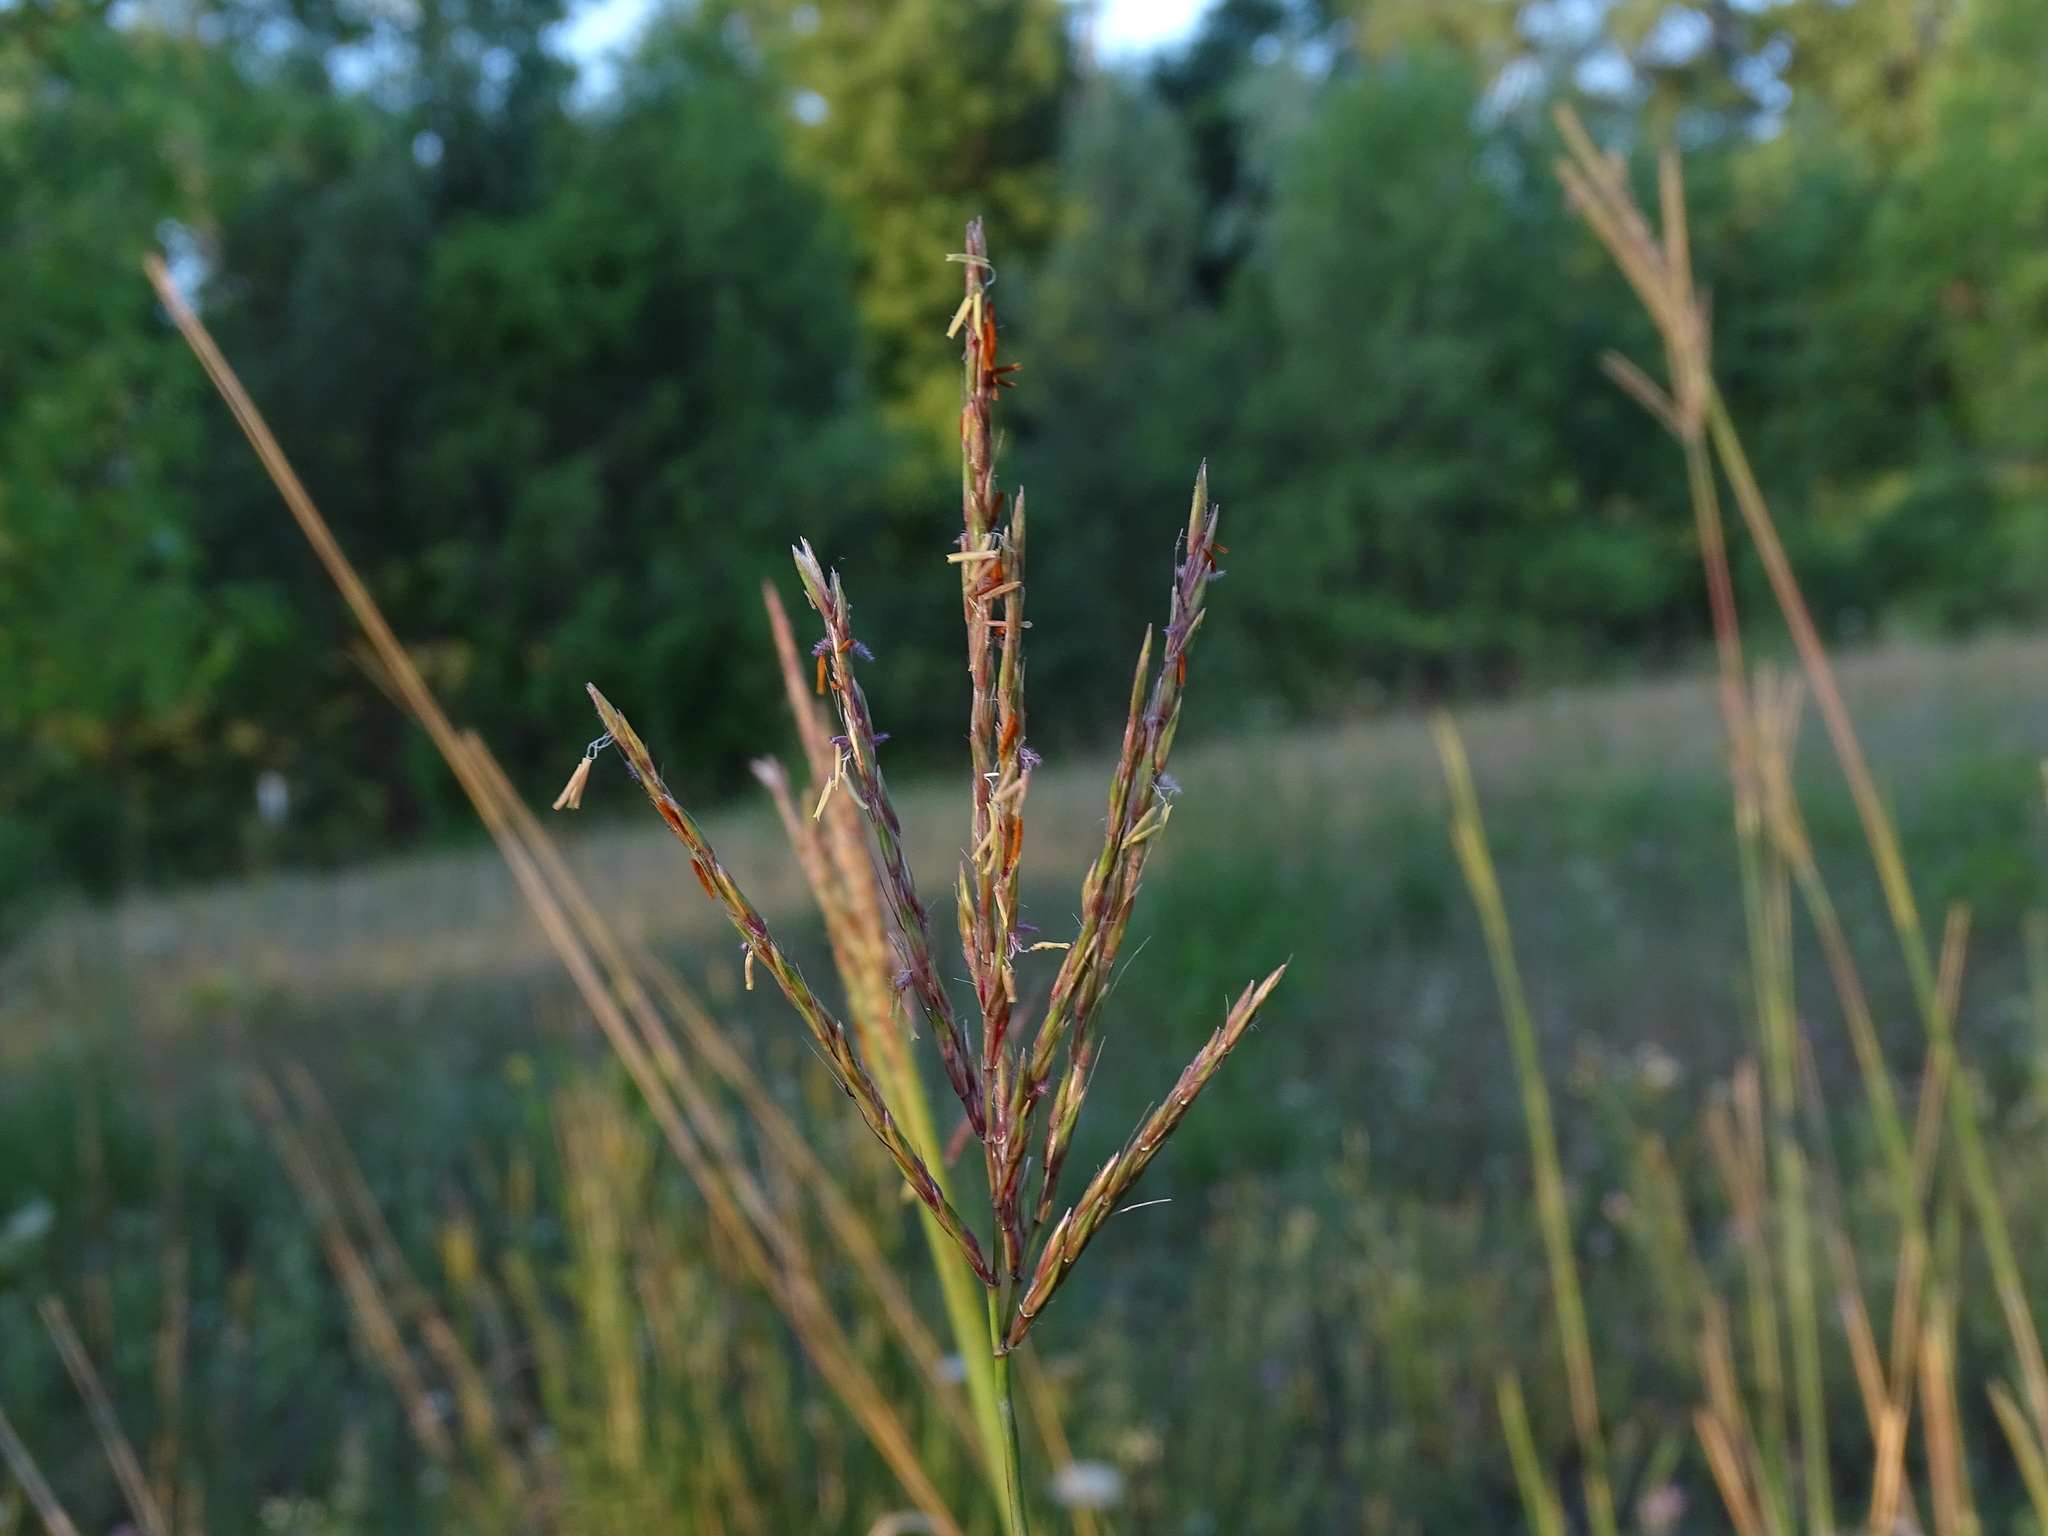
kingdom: Plantae
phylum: Tracheophyta
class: Liliopsida
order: Poales
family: Poaceae
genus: Andropogon
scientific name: Andropogon gerardi
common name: Big bluestem
